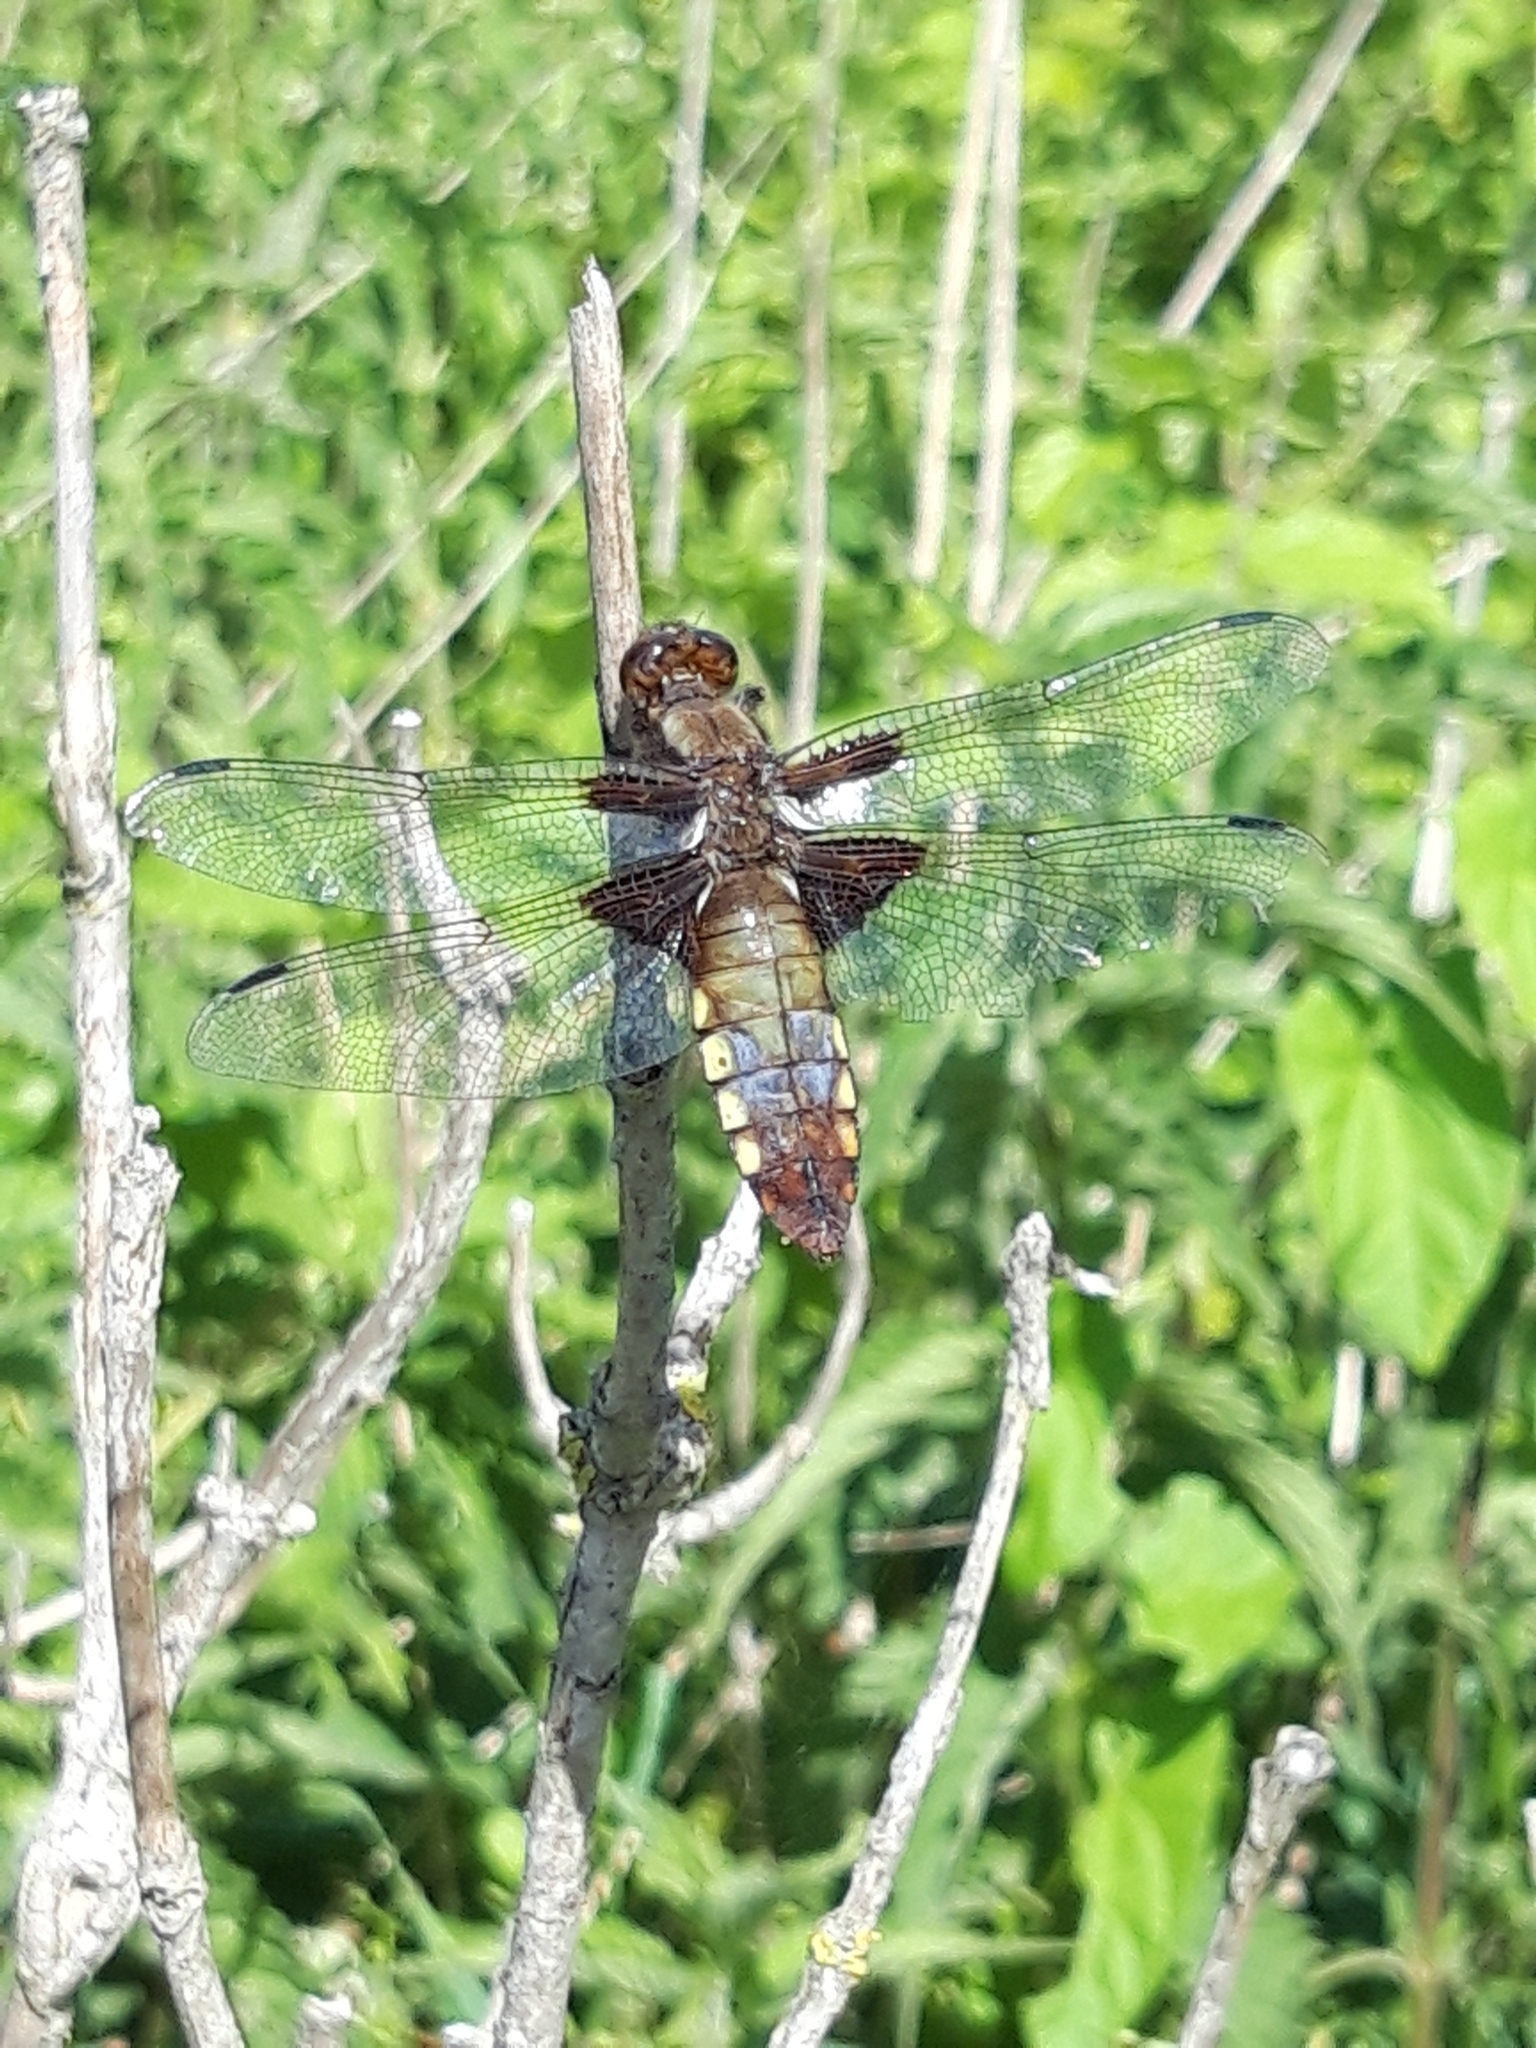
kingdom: Animalia
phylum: Arthropoda
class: Insecta
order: Odonata
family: Libellulidae
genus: Libellula
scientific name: Libellula depressa
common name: Broad-bodied chaser
